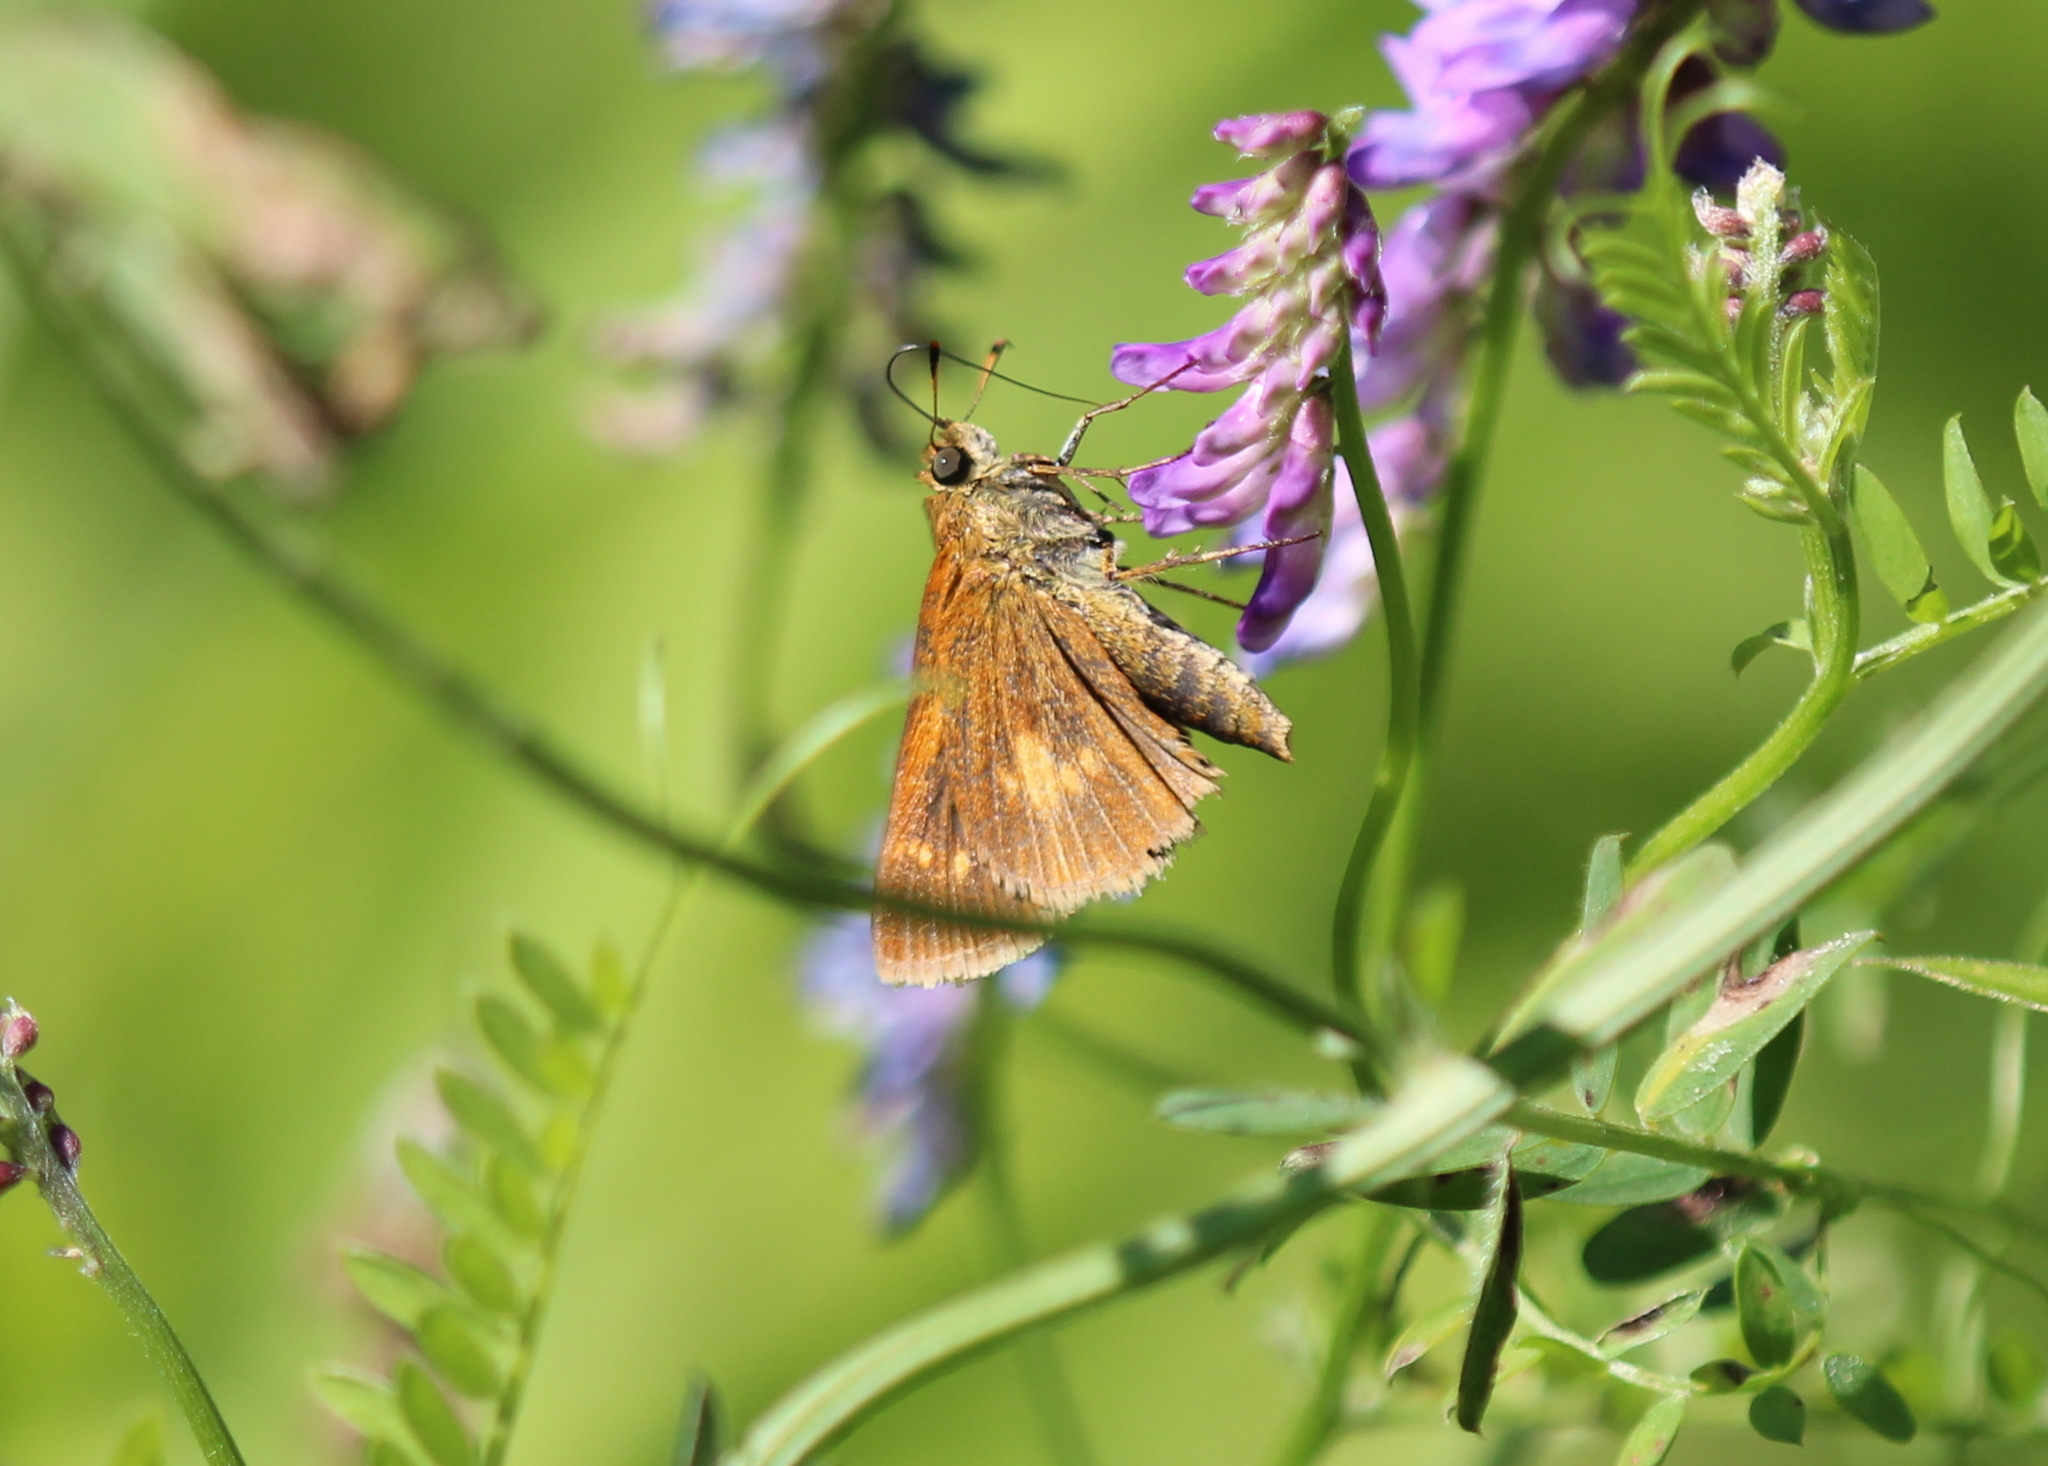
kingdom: Animalia
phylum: Arthropoda
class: Insecta
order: Lepidoptera
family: Hesperiidae
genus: Euphyes
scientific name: Euphyes conspicua
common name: Black dash
